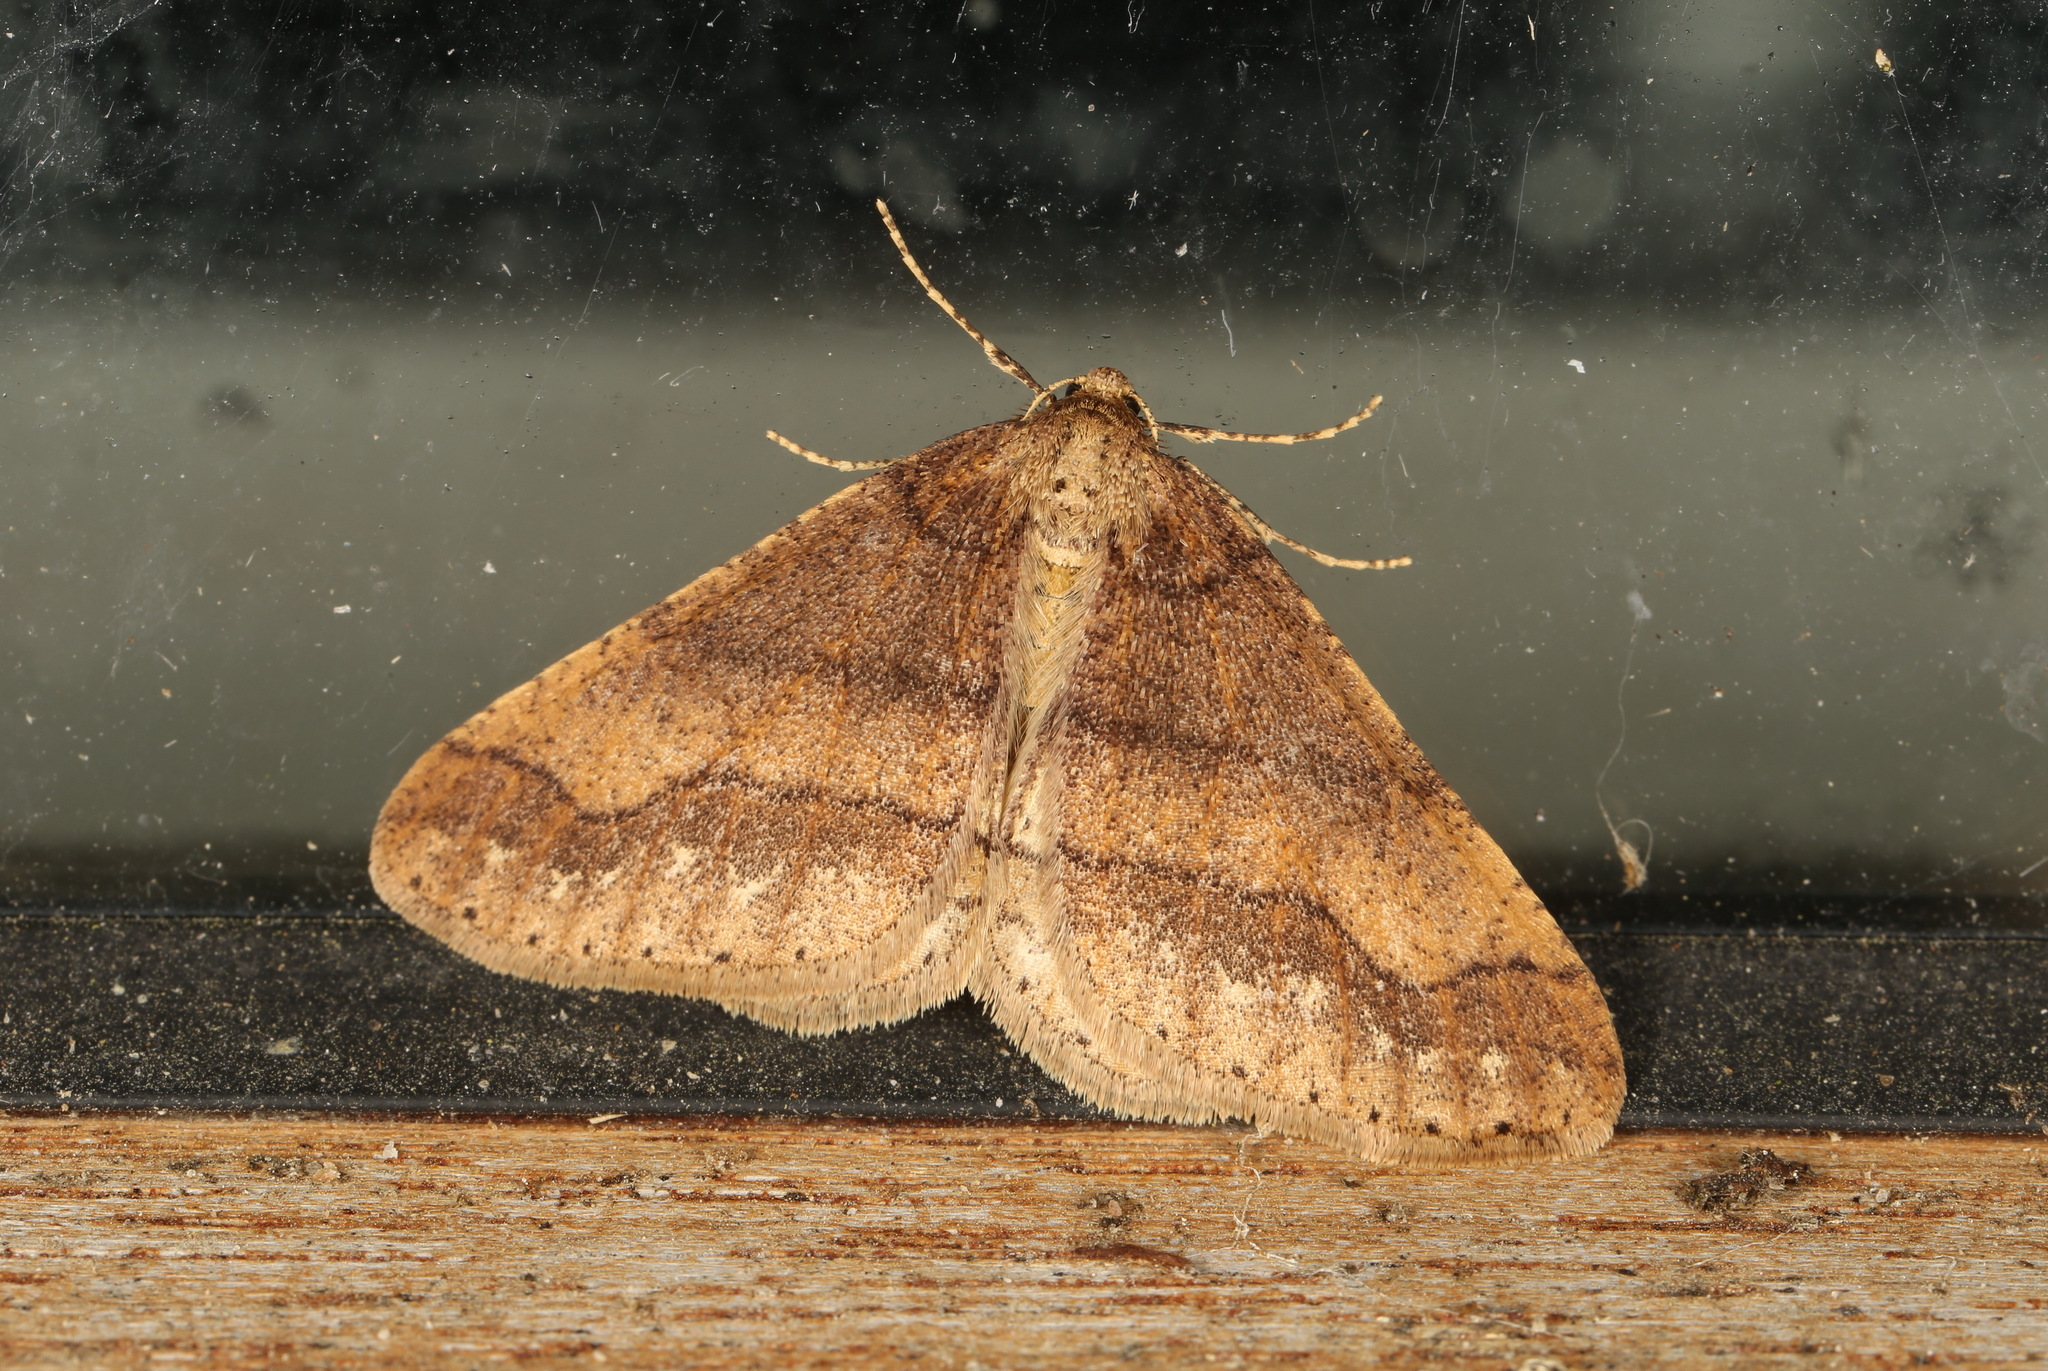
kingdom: Animalia
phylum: Arthropoda
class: Insecta
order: Lepidoptera
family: Geometridae
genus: Agriopis
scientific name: Agriopis marginaria
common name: Dotted border
